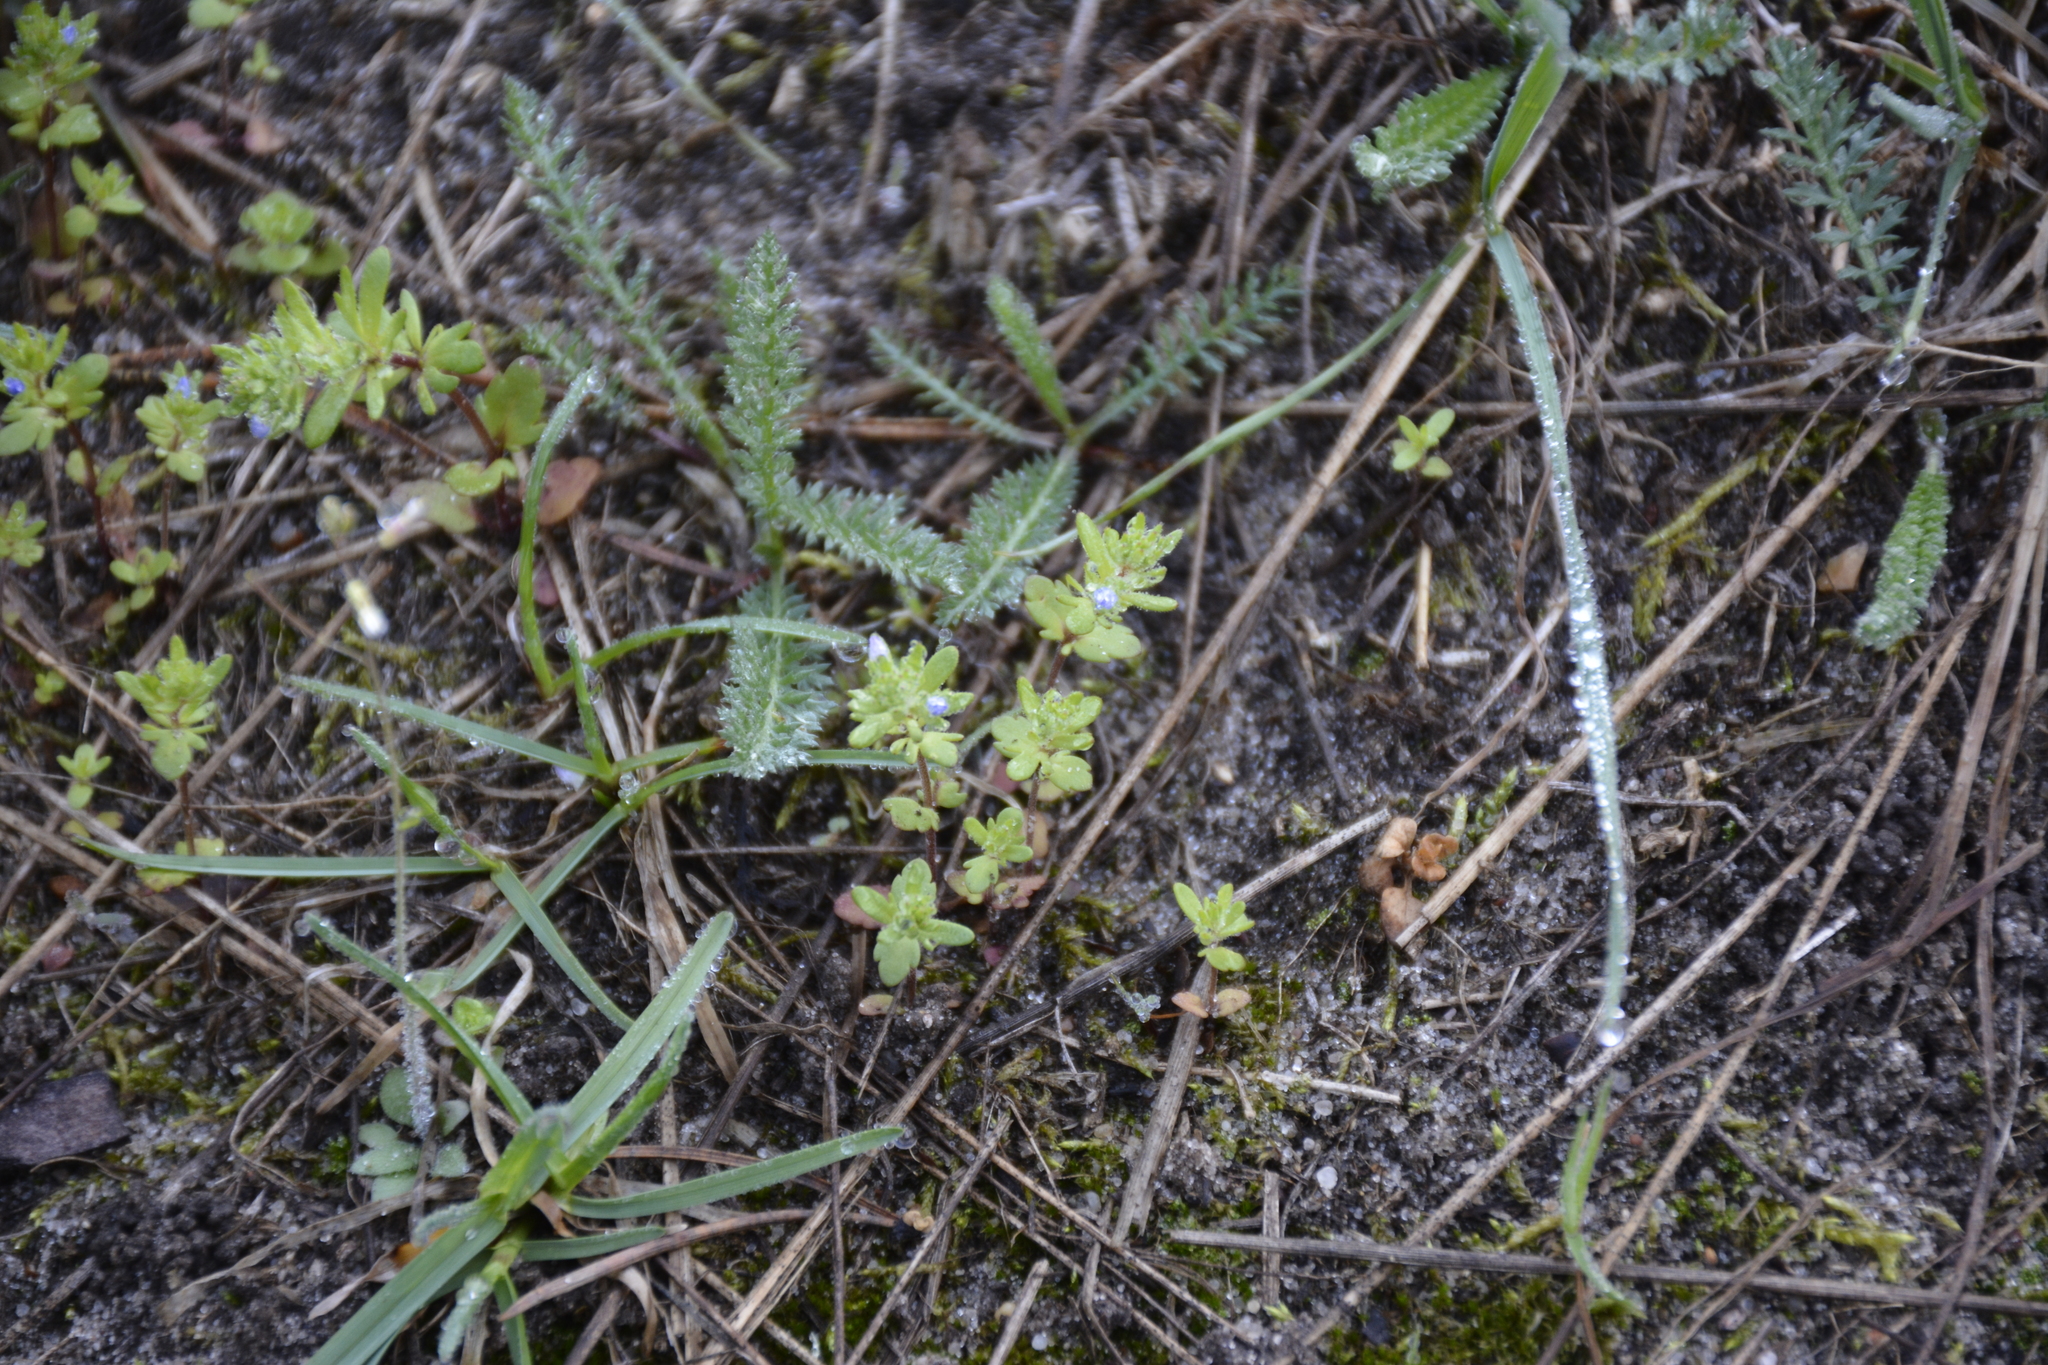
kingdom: Plantae
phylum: Tracheophyta
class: Magnoliopsida
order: Lamiales
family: Plantaginaceae
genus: Veronica
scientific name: Veronica verna
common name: Spring speedwell
